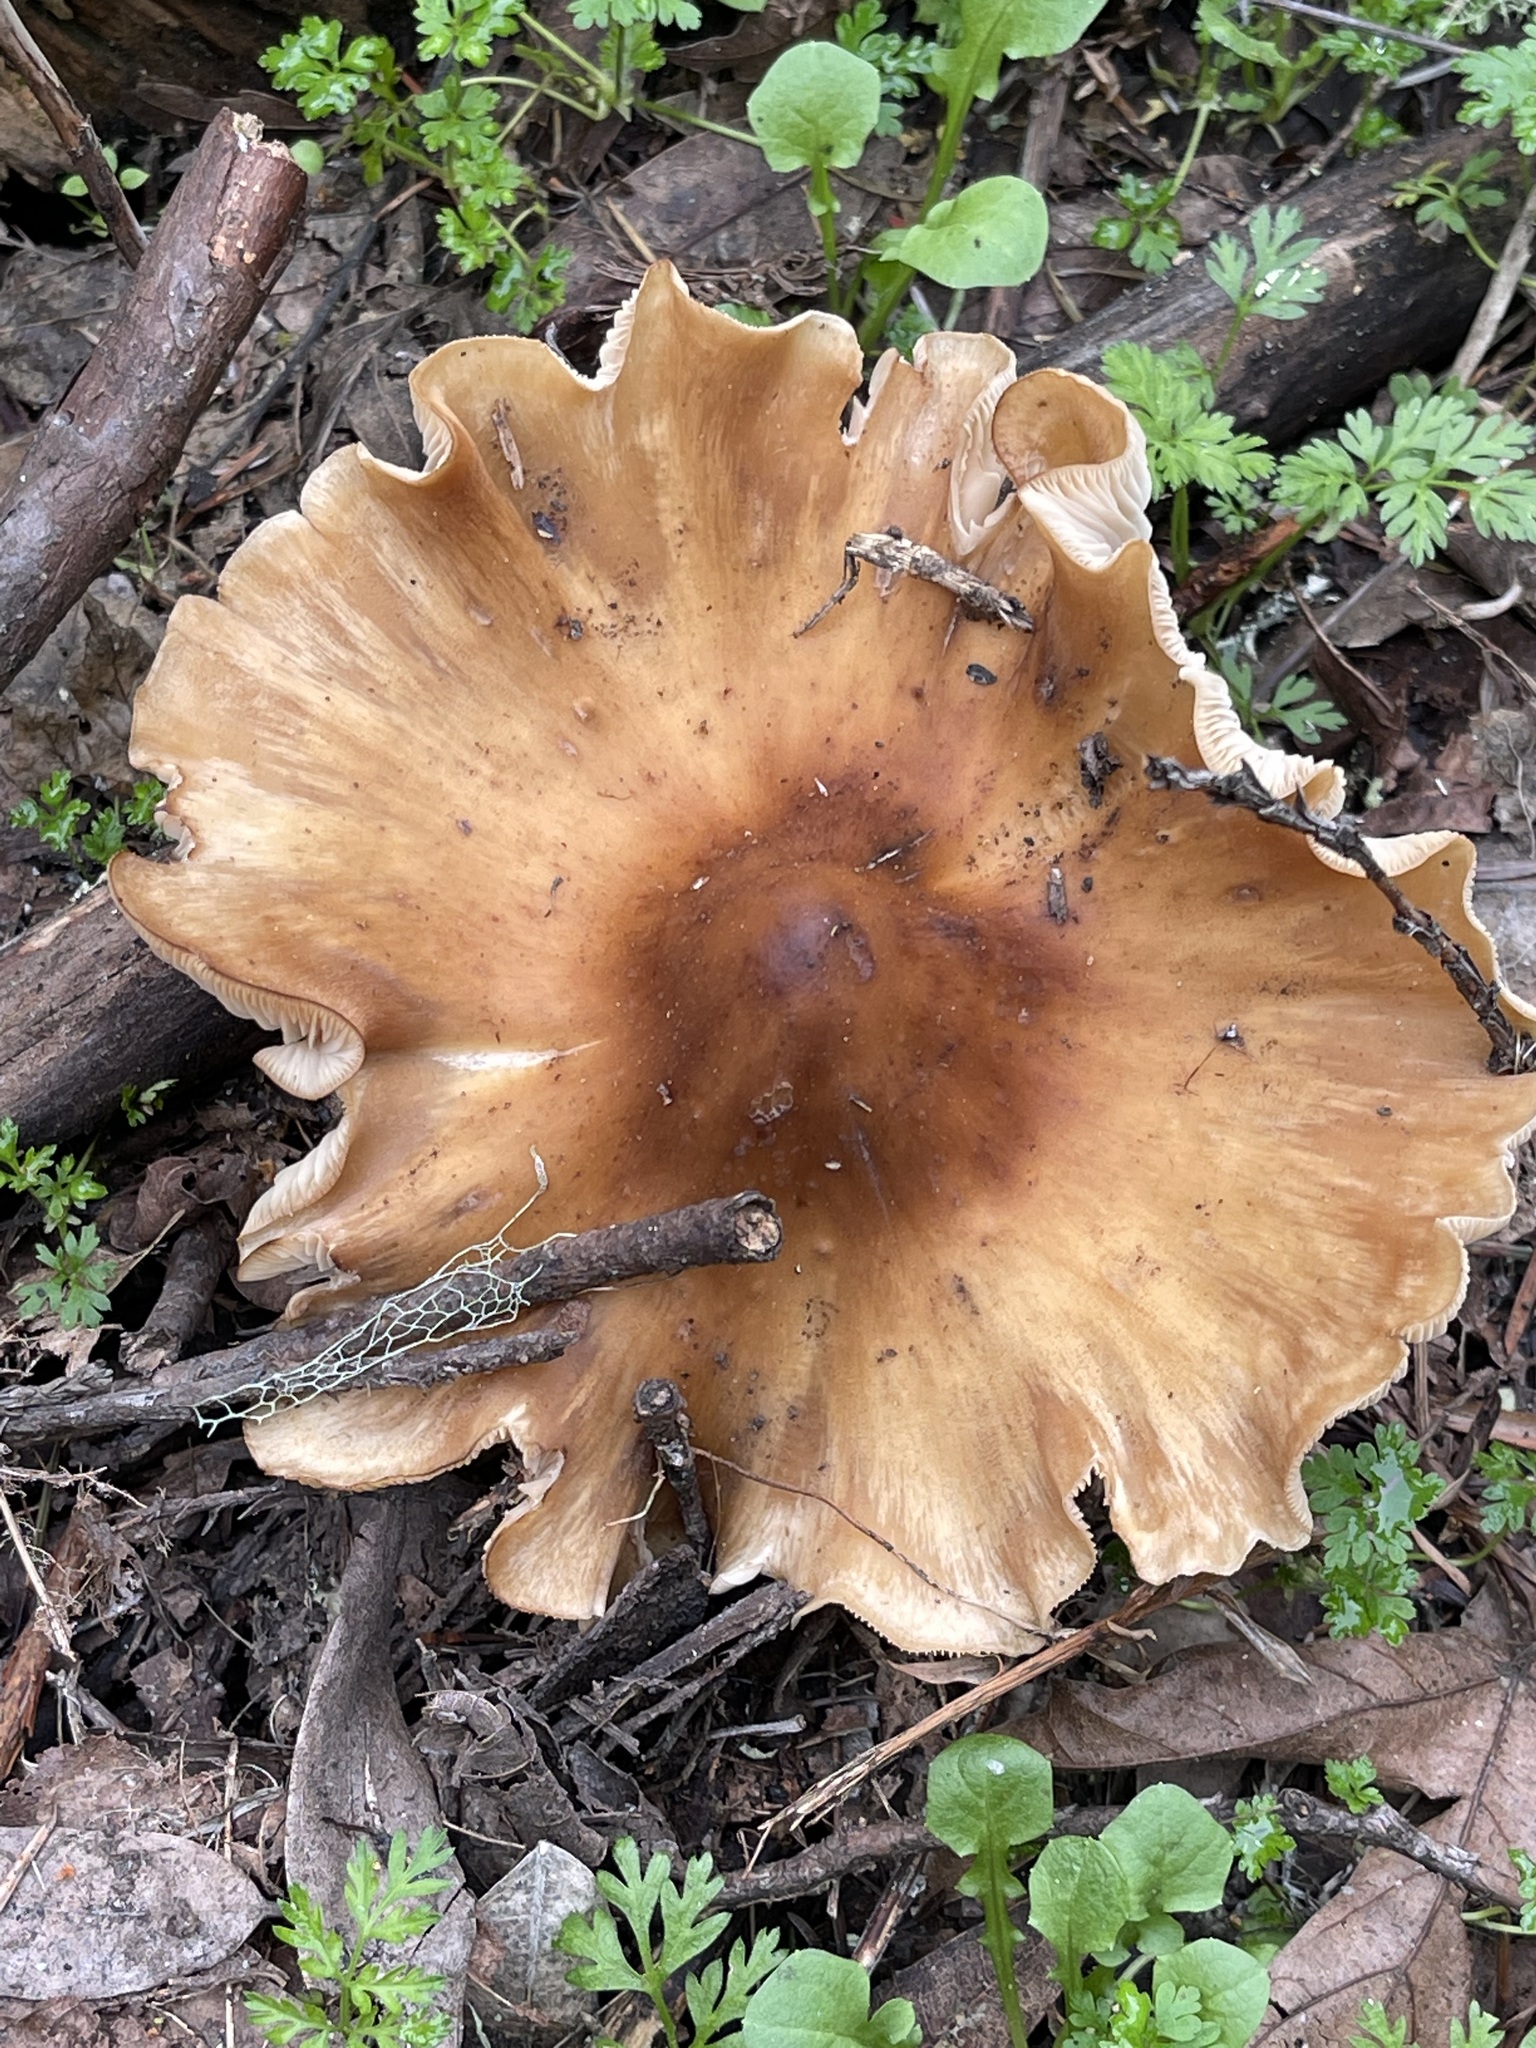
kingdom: Fungi
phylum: Basidiomycota
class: Agaricomycetes
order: Agaricales
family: Tricholomataceae
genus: Caulorhiza
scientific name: Caulorhiza umbonata
